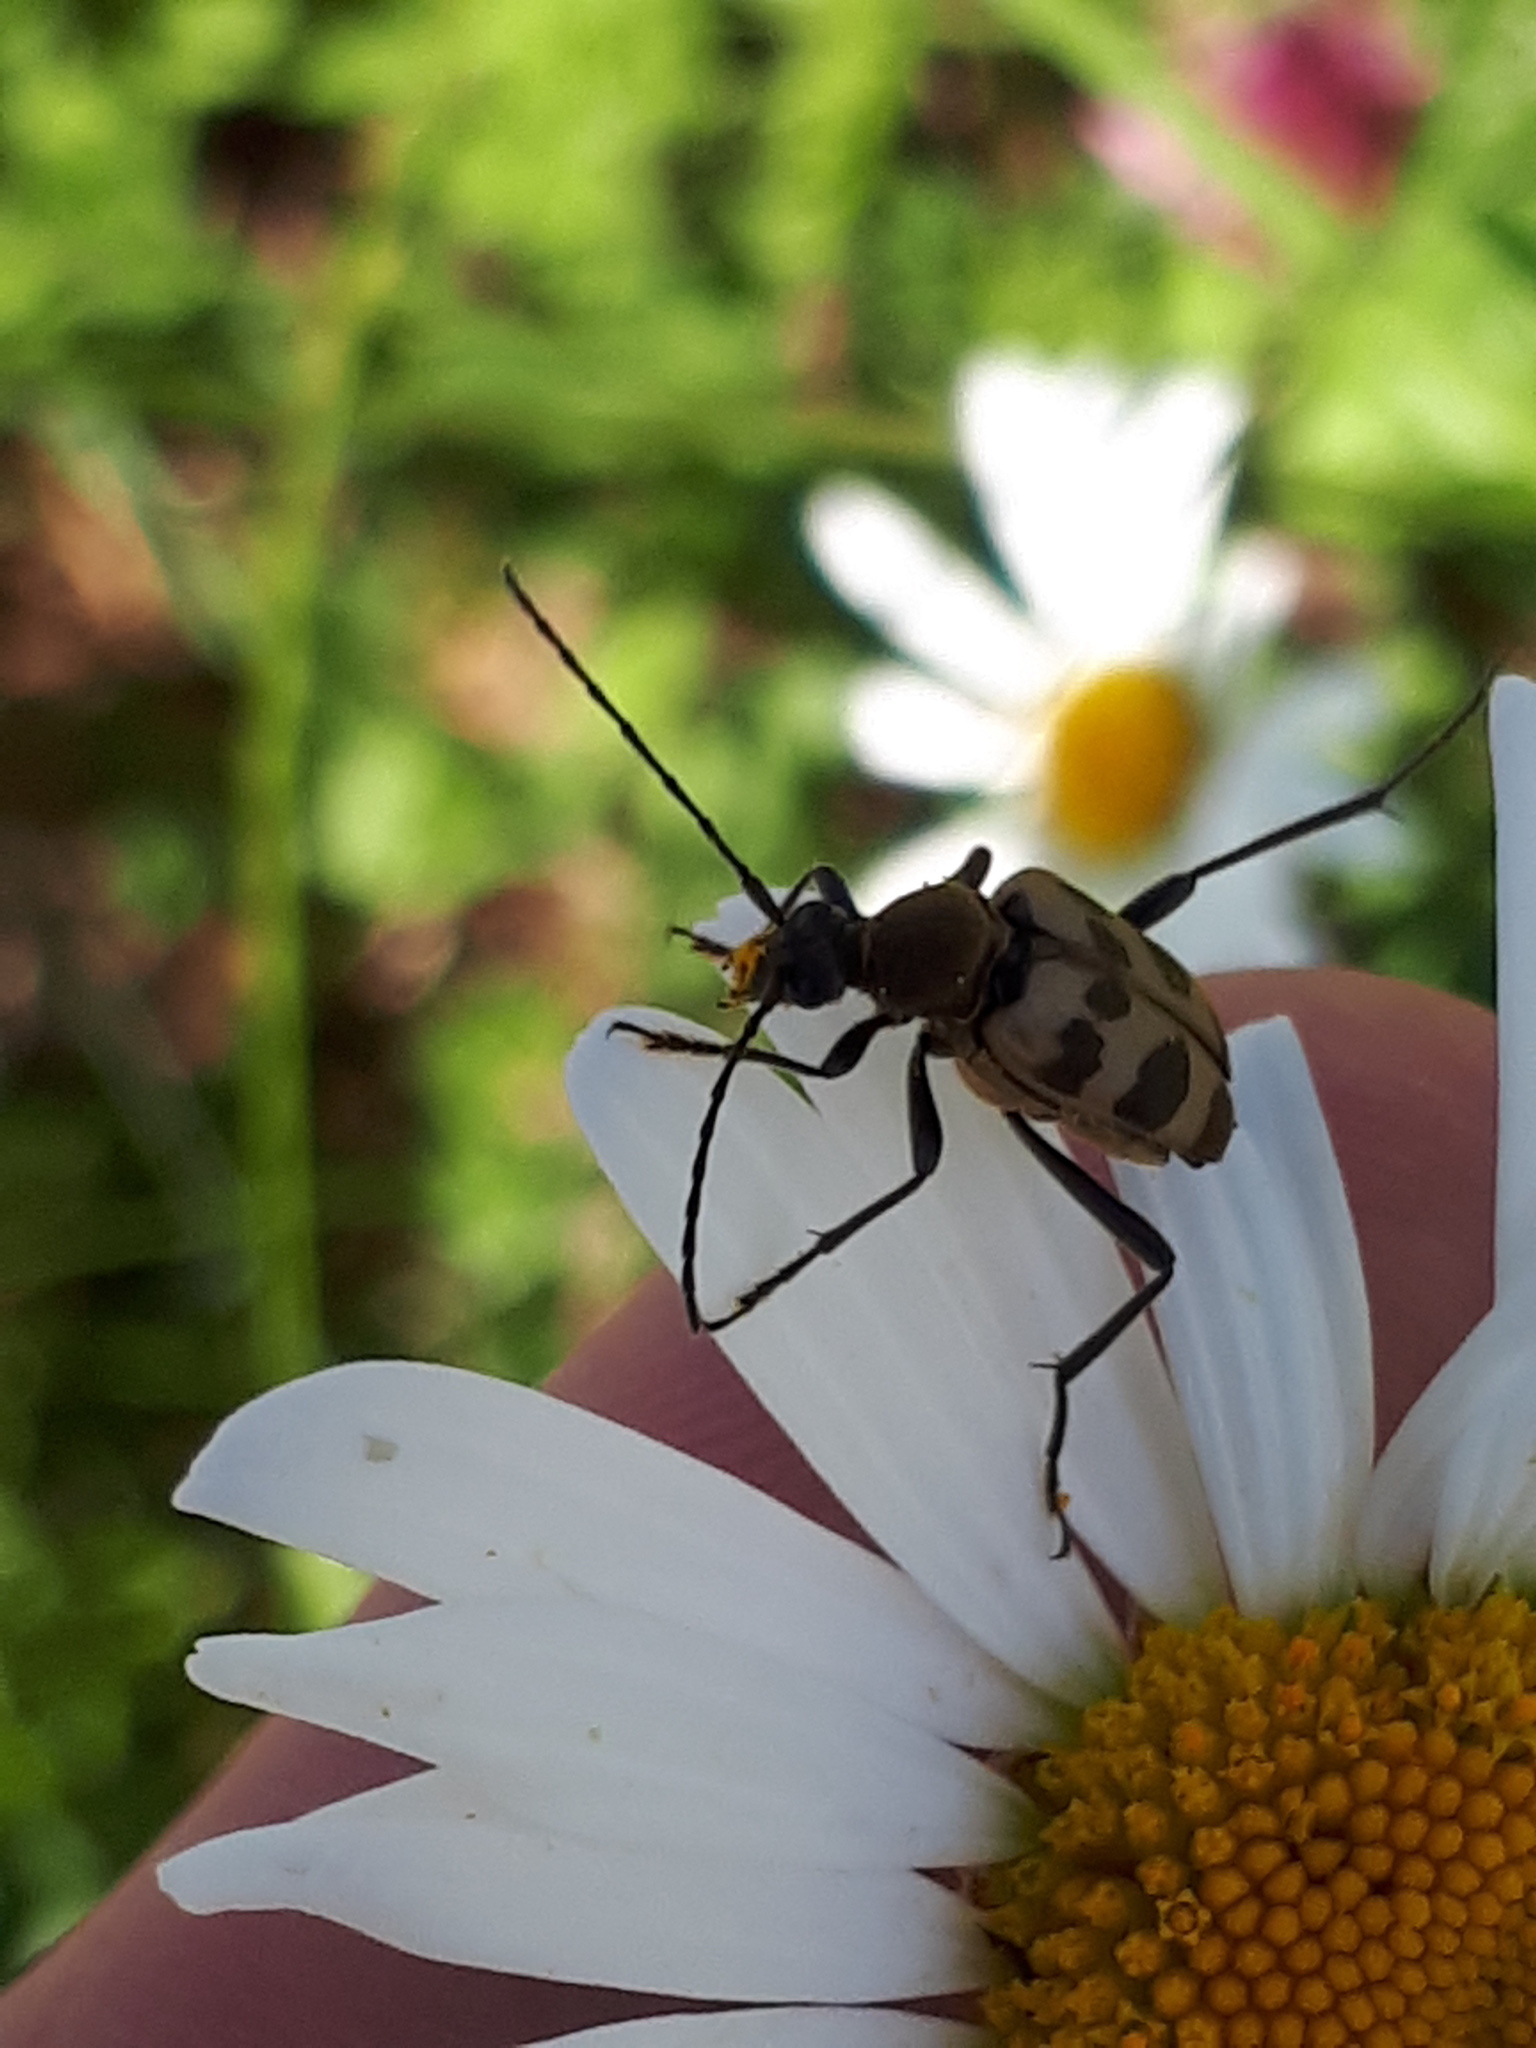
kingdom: Animalia
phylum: Arthropoda
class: Insecta
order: Coleoptera
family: Cerambycidae
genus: Pachytodes
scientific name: Pachytodes cerambyciformis
